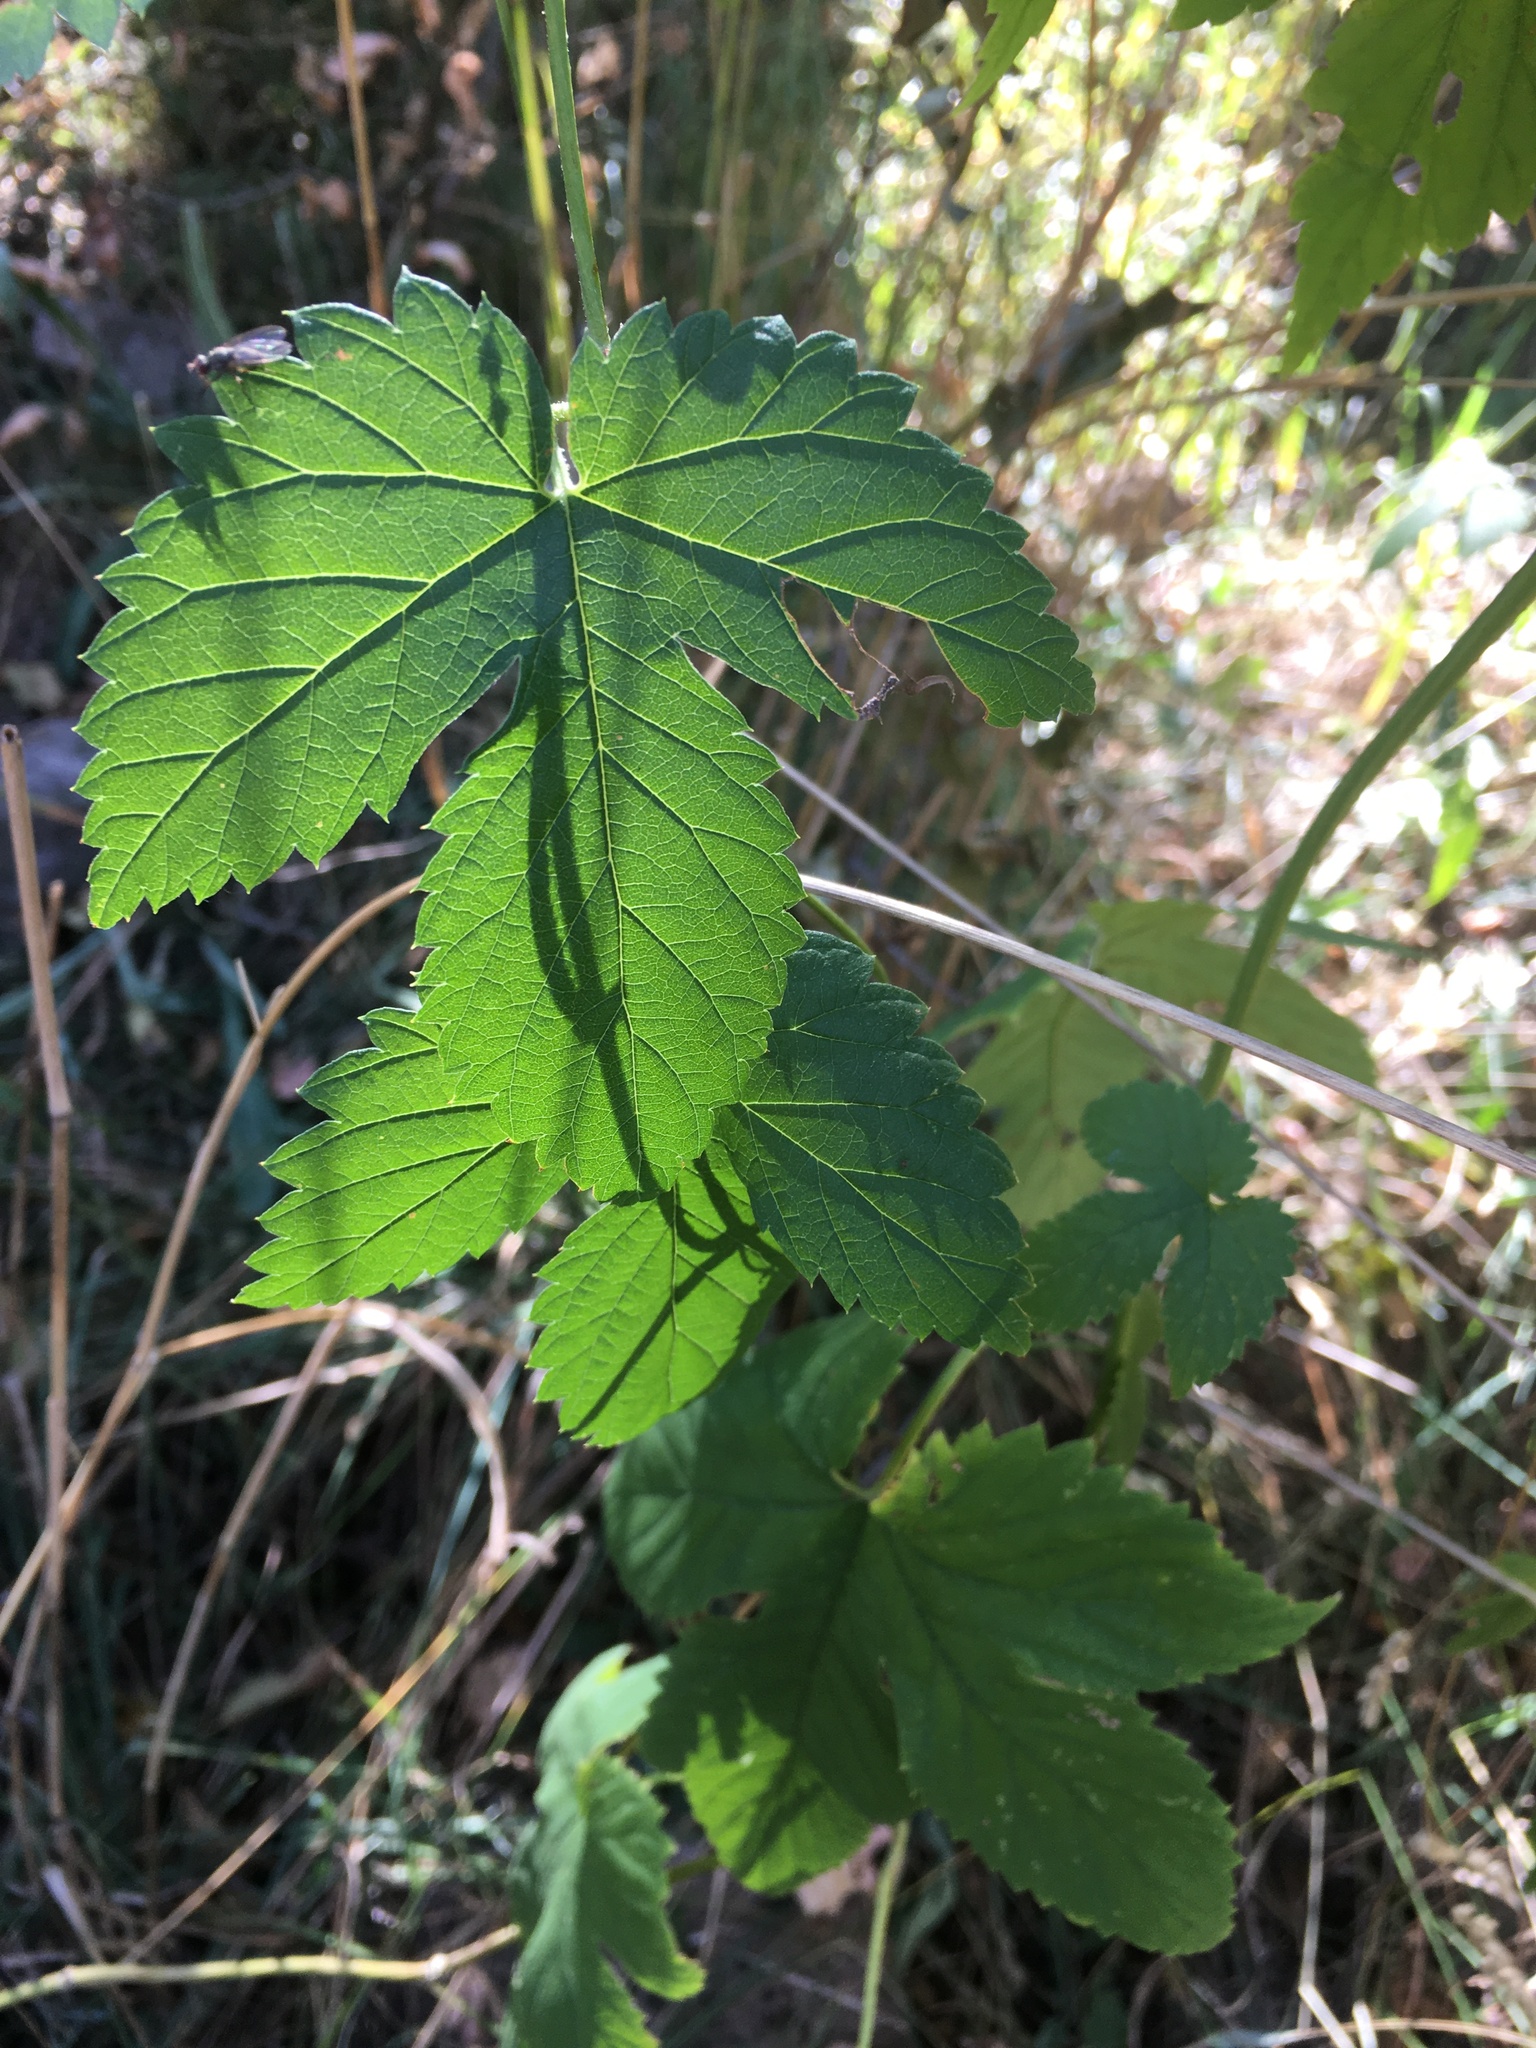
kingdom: Plantae
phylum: Tracheophyta
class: Magnoliopsida
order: Rosales
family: Cannabaceae
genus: Humulus
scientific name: Humulus lupulus
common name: Hop
